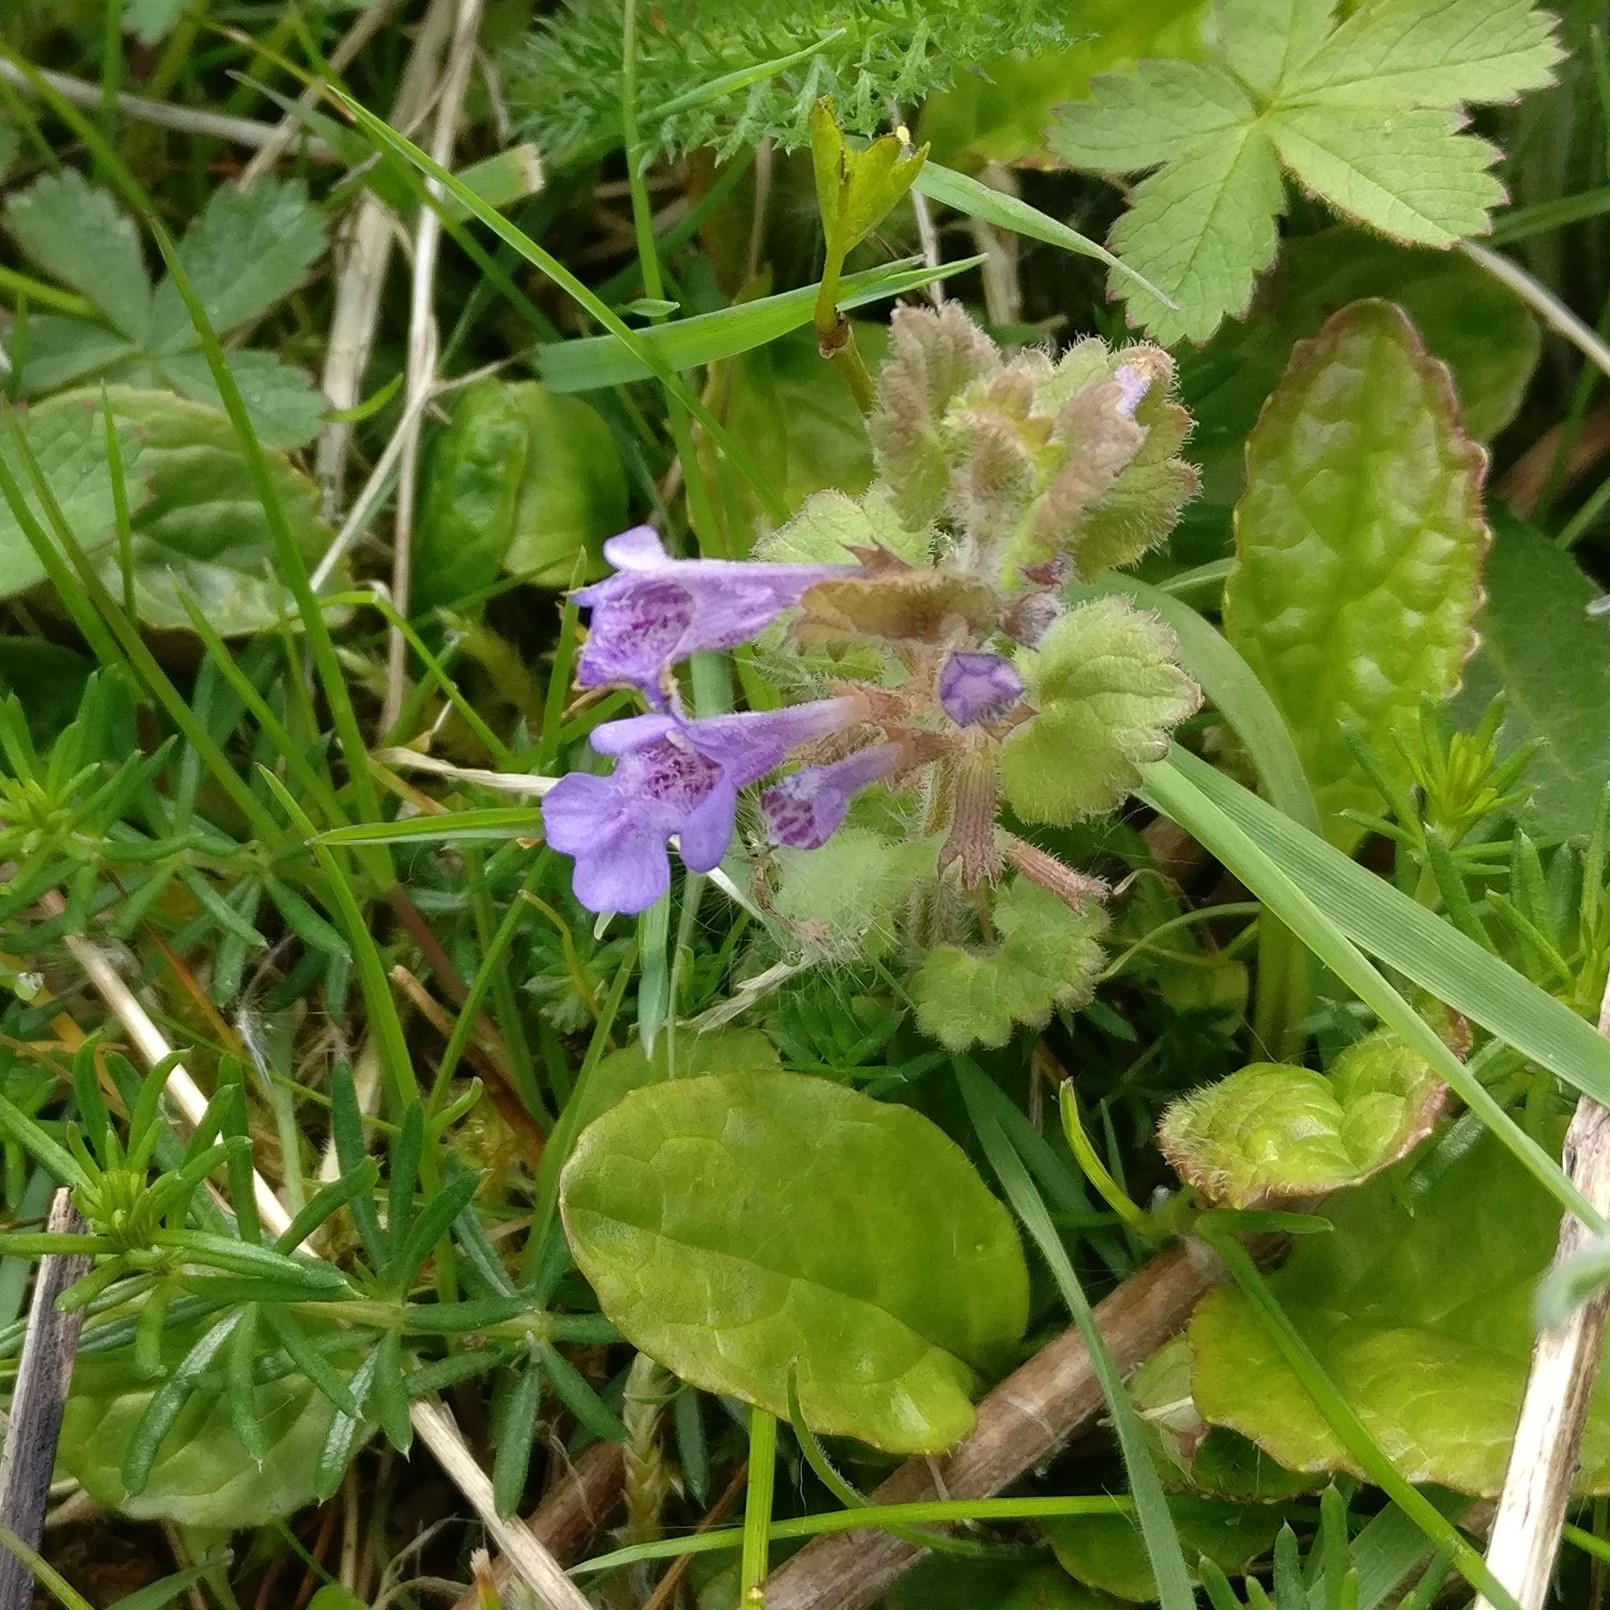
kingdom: Plantae
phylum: Tracheophyta
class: Magnoliopsida
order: Lamiales
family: Lamiaceae
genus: Glechoma
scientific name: Glechoma hederacea
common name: Ground ivy
